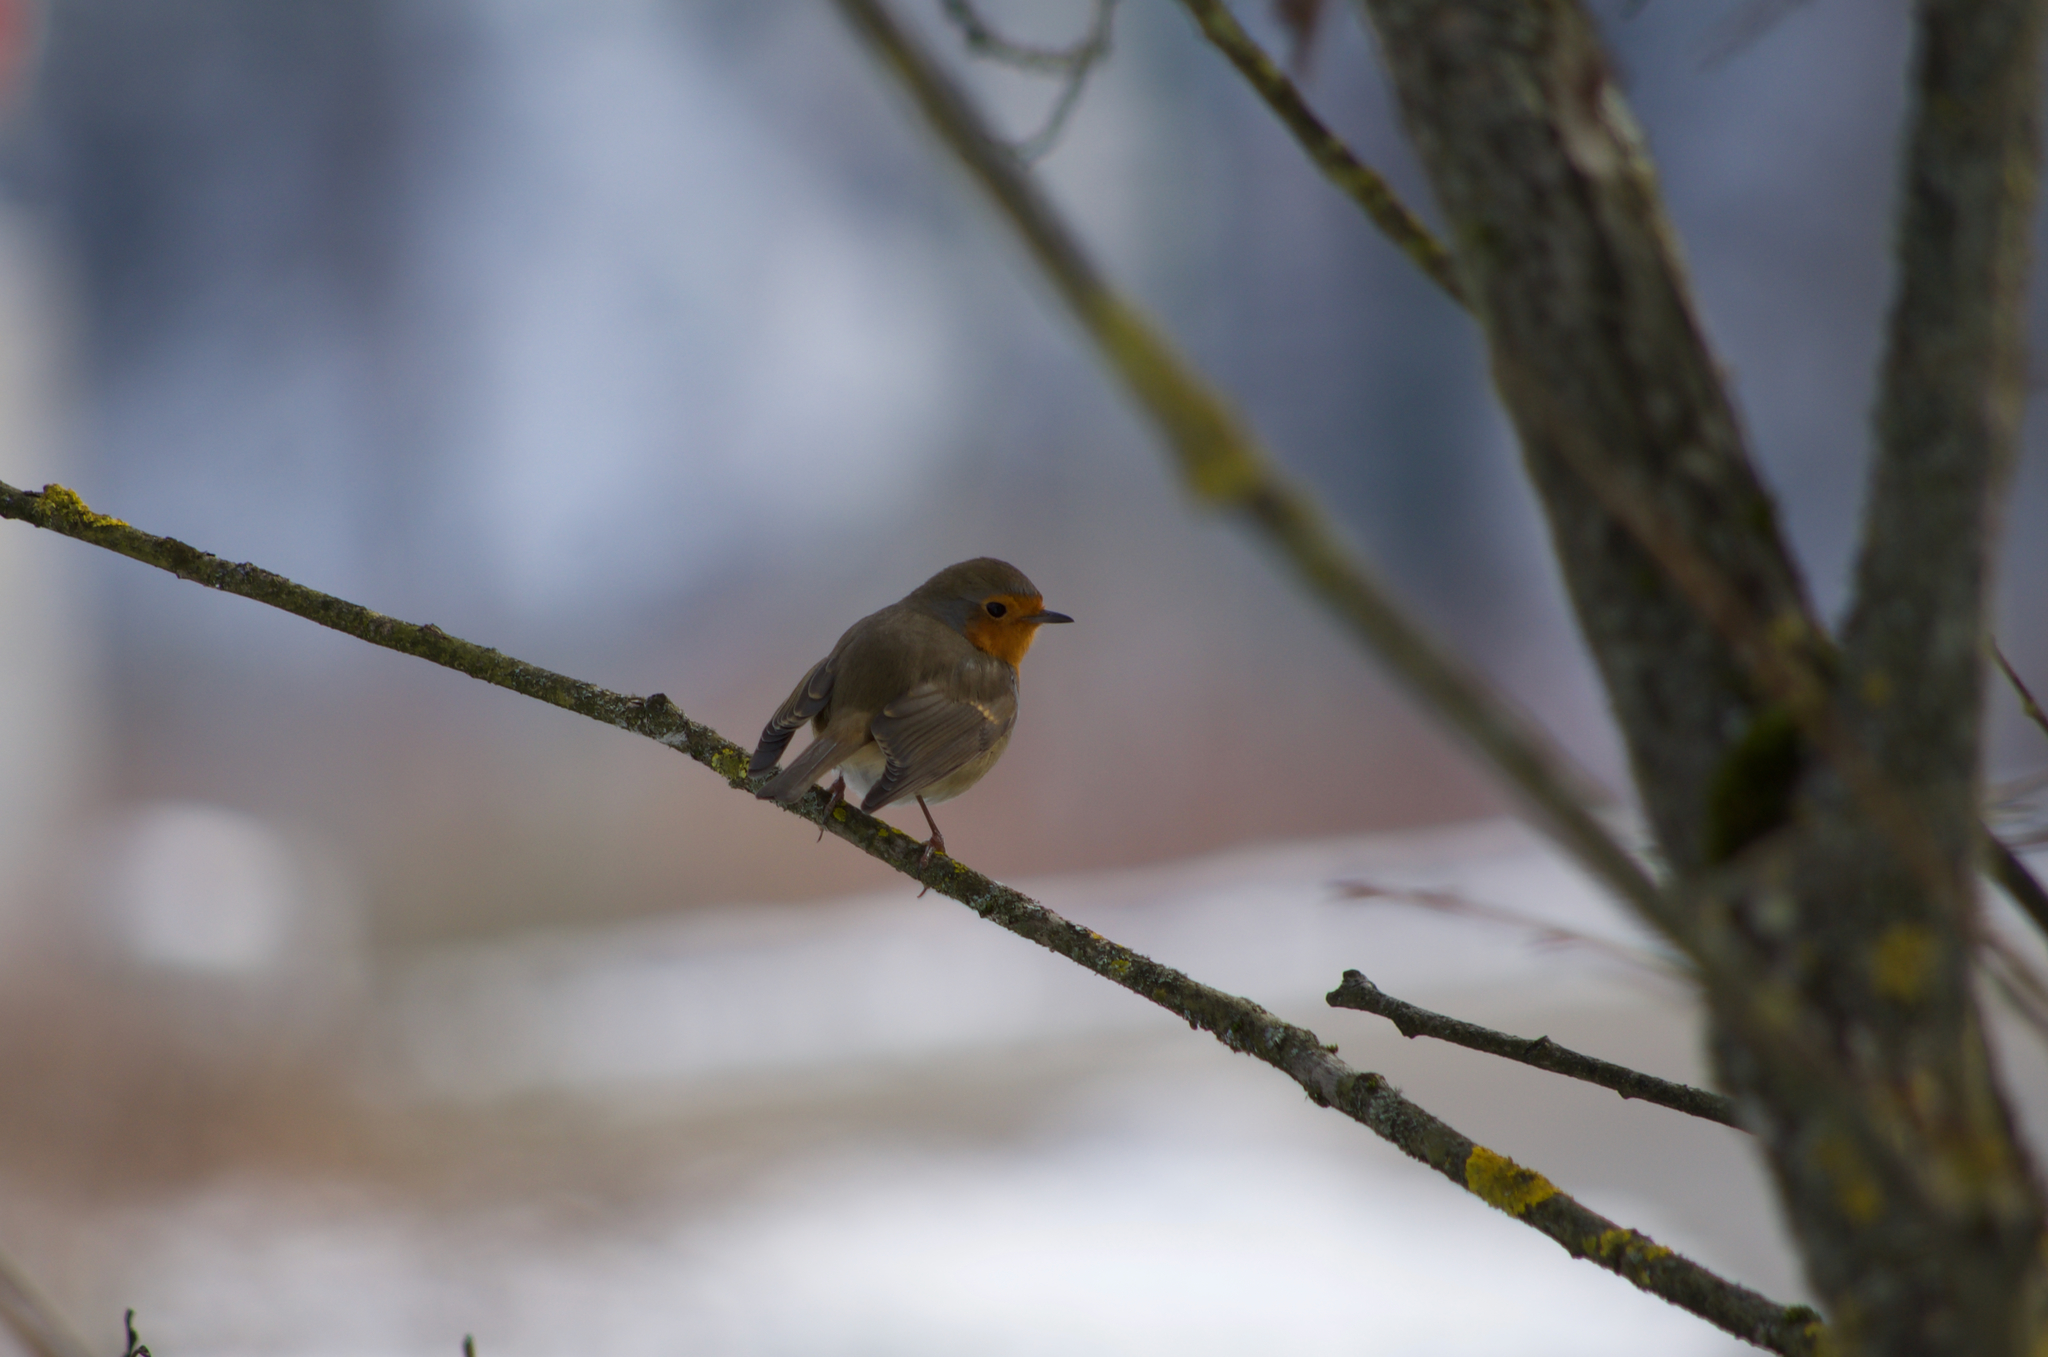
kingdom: Animalia
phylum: Chordata
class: Aves
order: Passeriformes
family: Muscicapidae
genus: Erithacus
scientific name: Erithacus rubecula
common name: European robin
